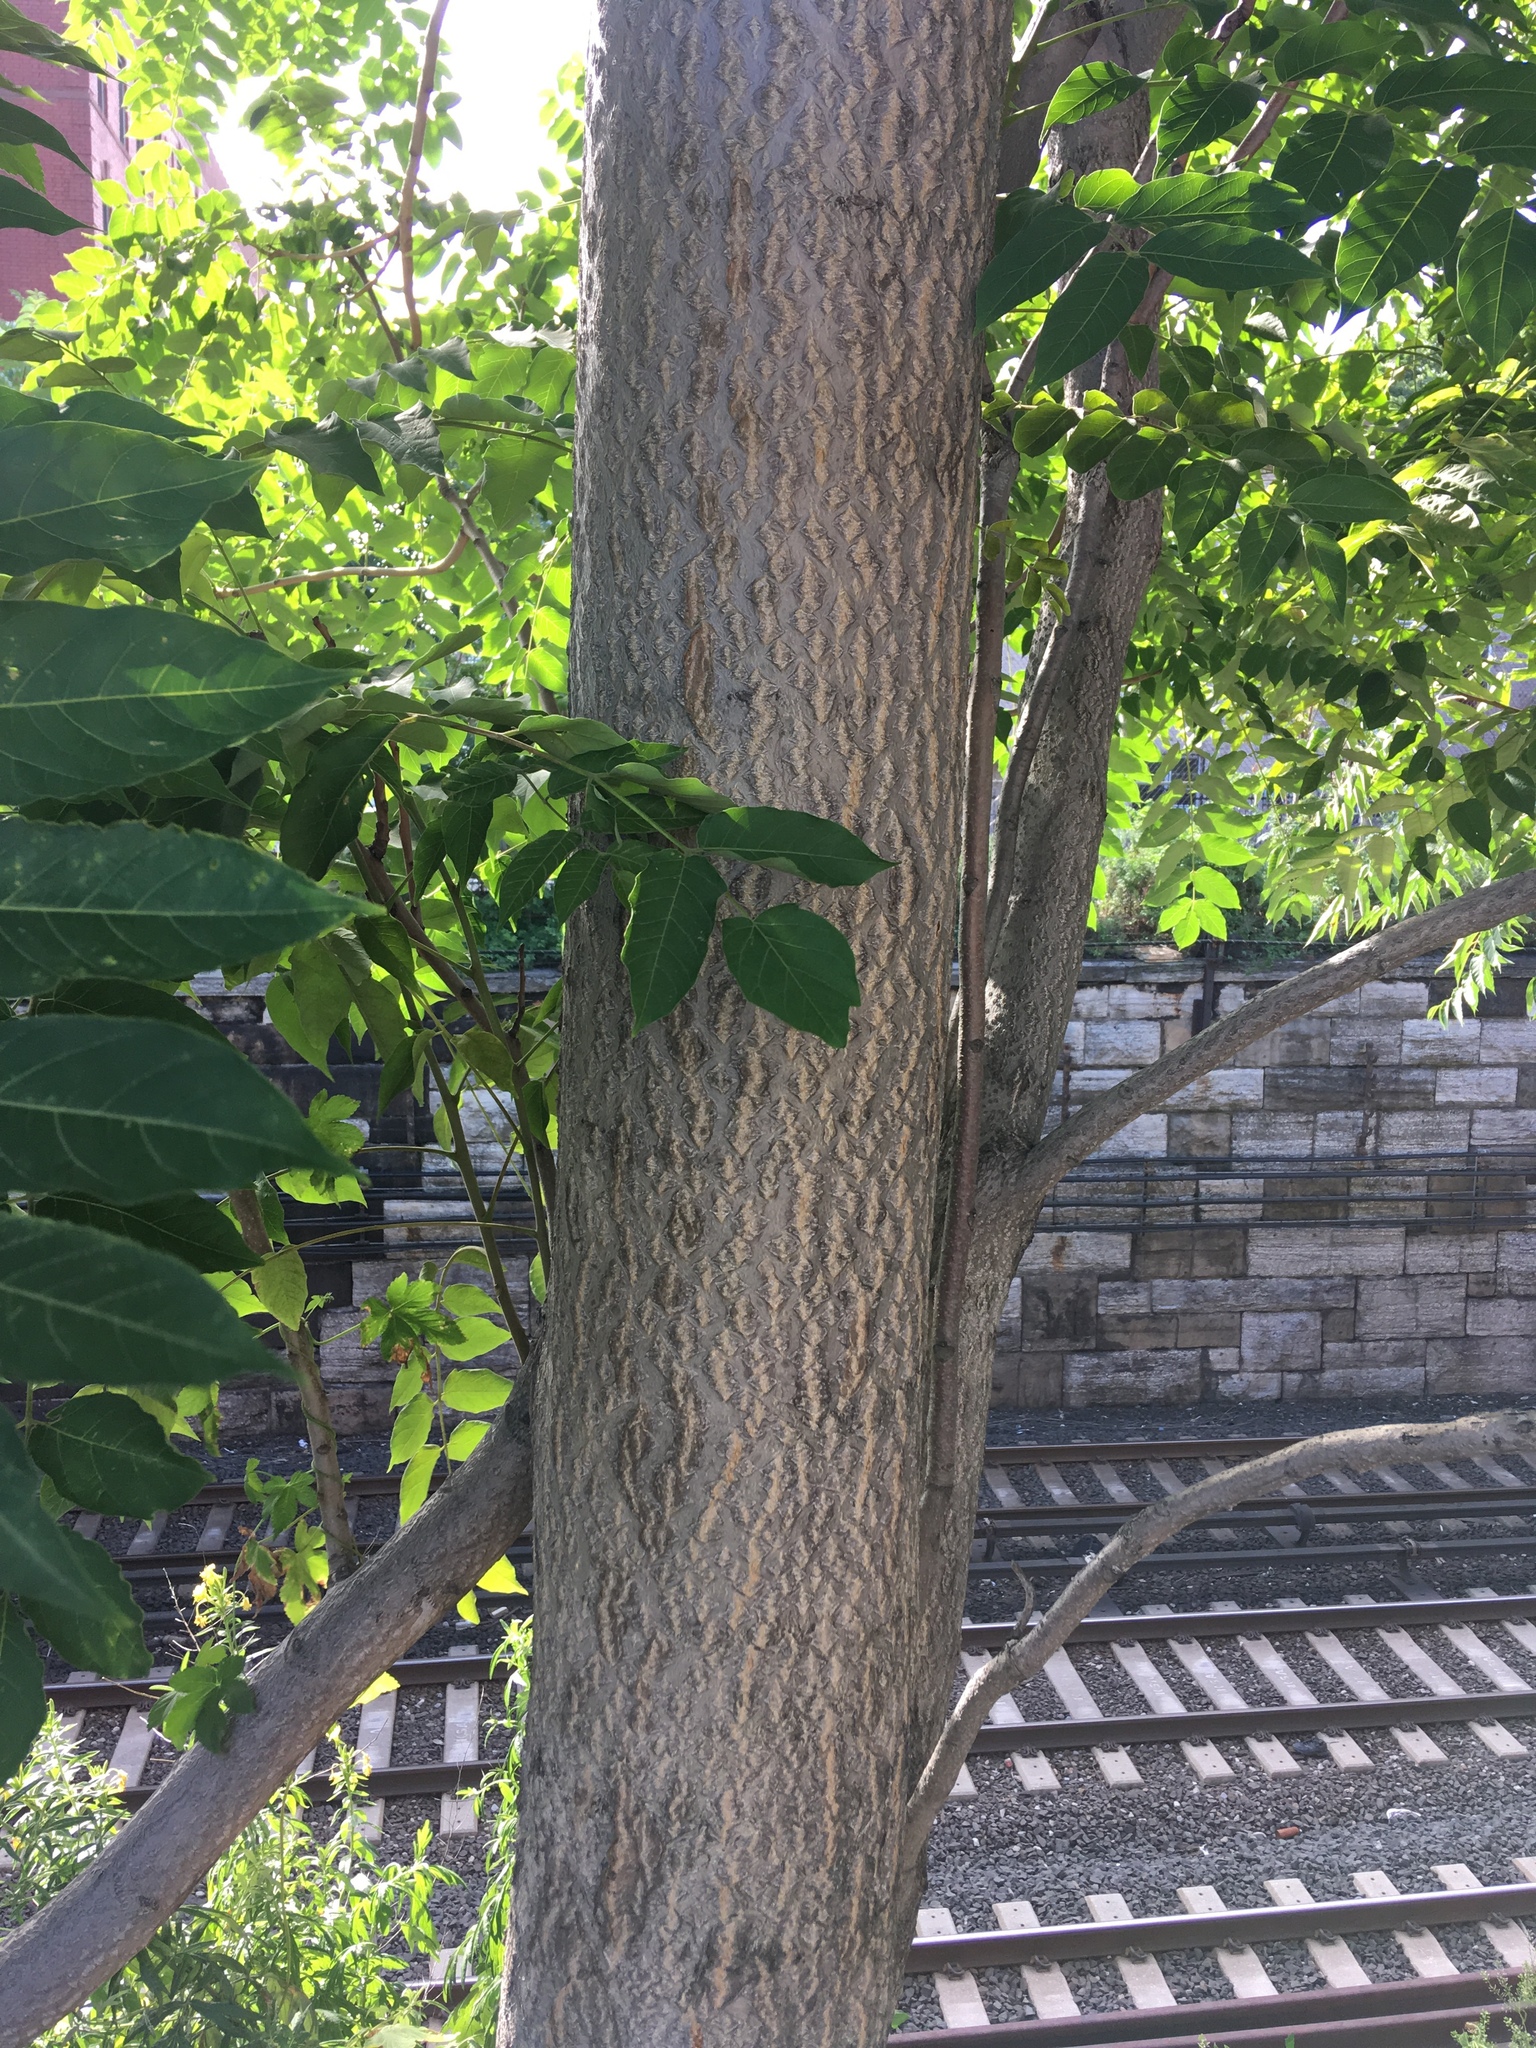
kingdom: Plantae
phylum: Tracheophyta
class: Magnoliopsida
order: Sapindales
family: Simaroubaceae
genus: Ailanthus
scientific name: Ailanthus altissima
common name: Tree-of-heaven
